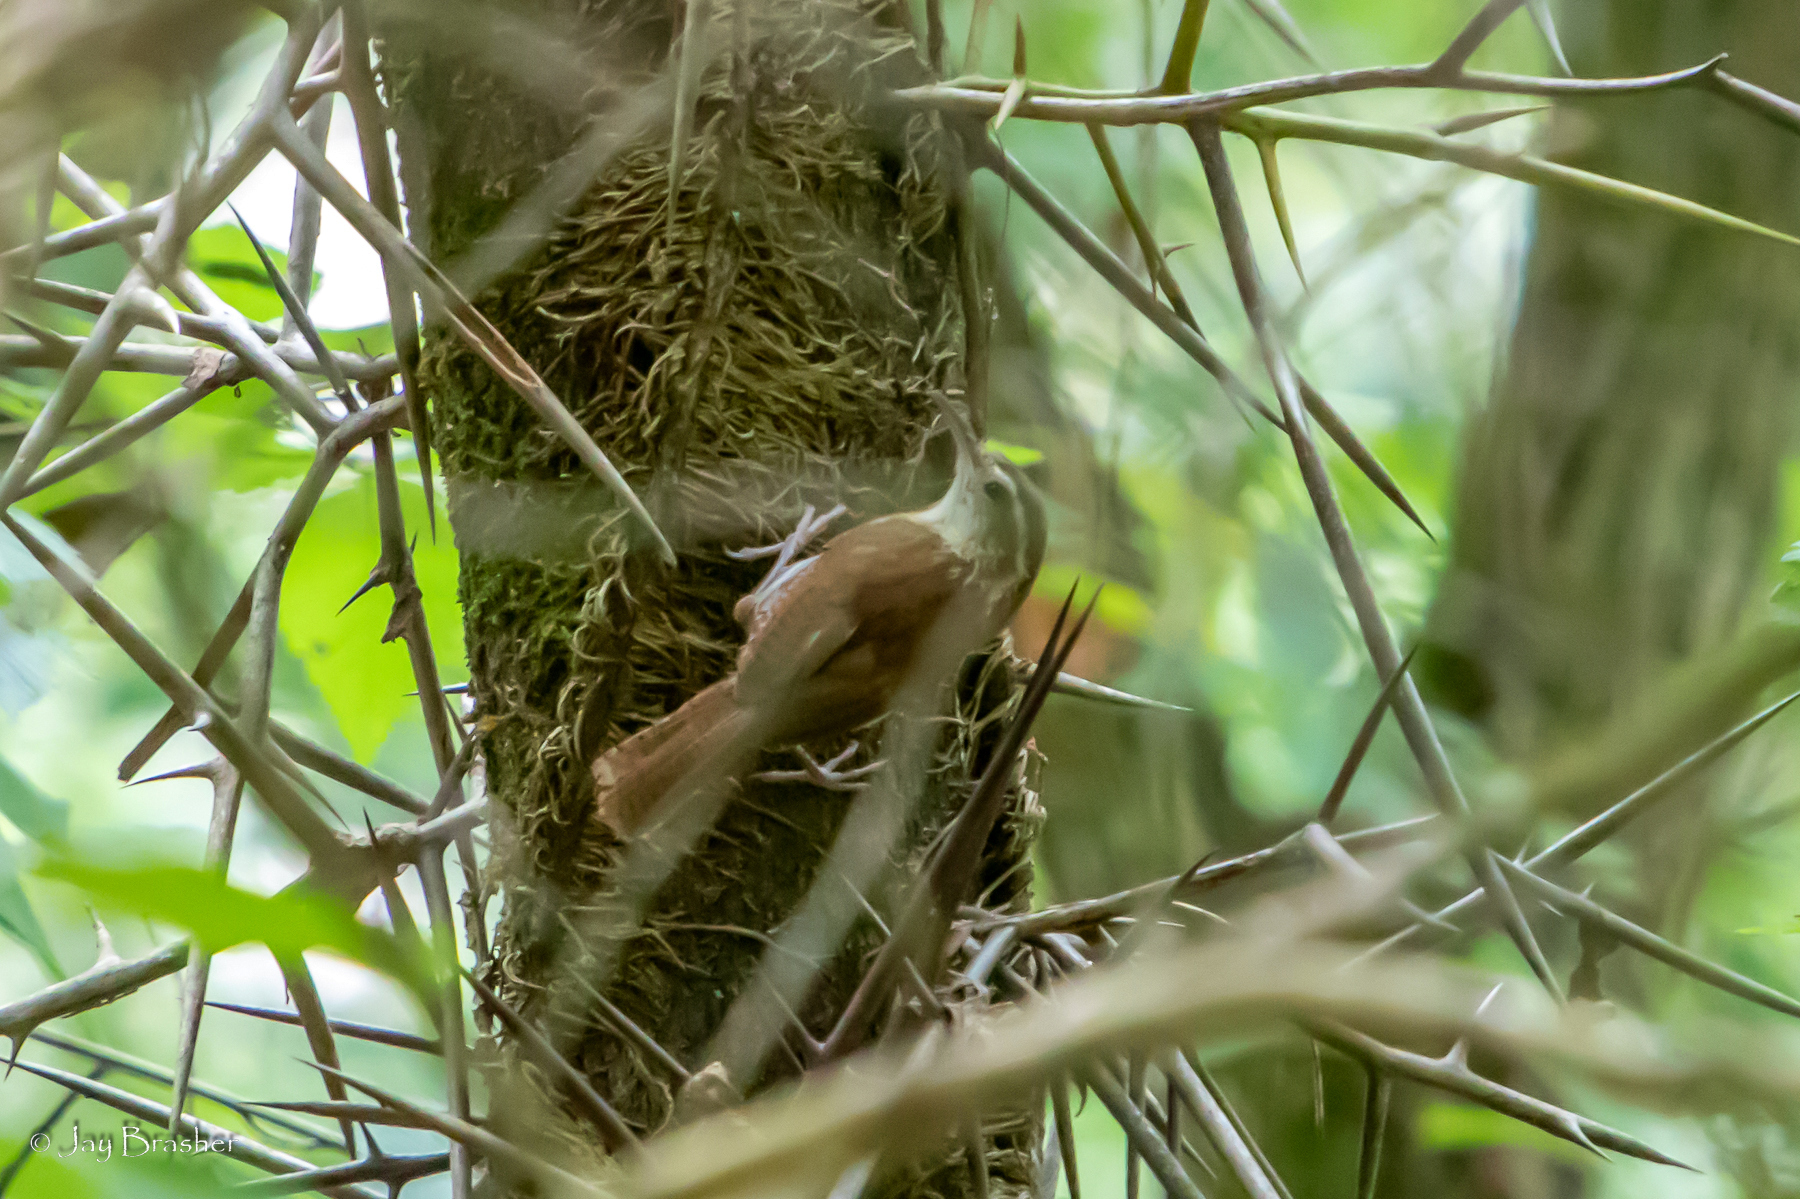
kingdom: Animalia
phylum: Chordata
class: Aves
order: Passeriformes
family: Troglodytidae
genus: Thryothorus
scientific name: Thryothorus ludovicianus
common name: Carolina wren
